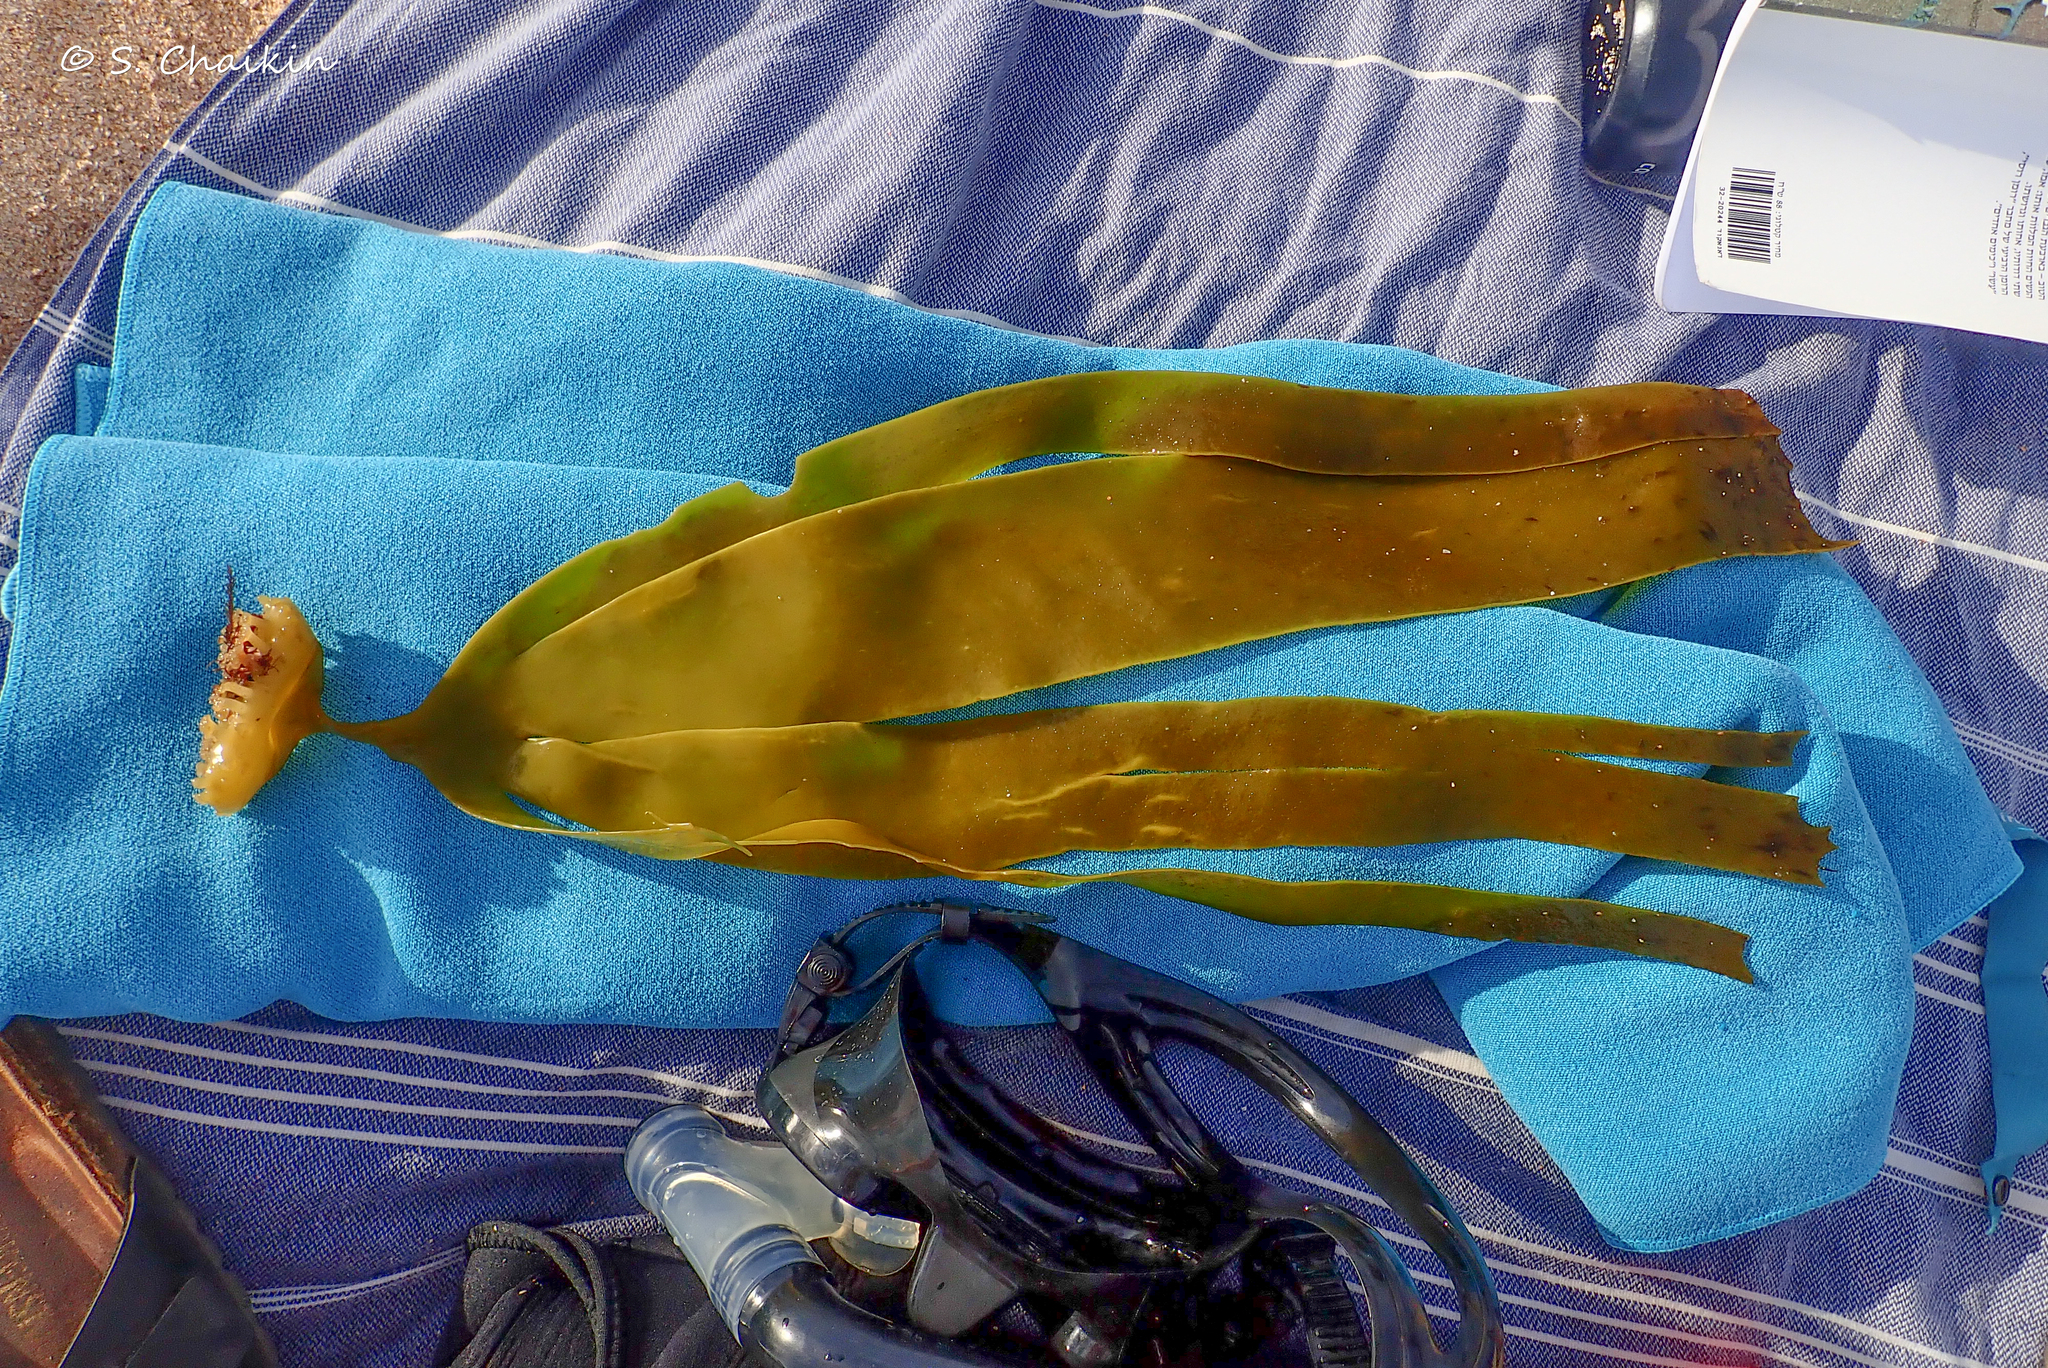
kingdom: Chromista
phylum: Ochrophyta
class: Phaeophyceae
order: Tilopteridales
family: Phyllariaceae
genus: Saccorhiza
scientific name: Saccorhiza polyschides
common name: Furbelows
